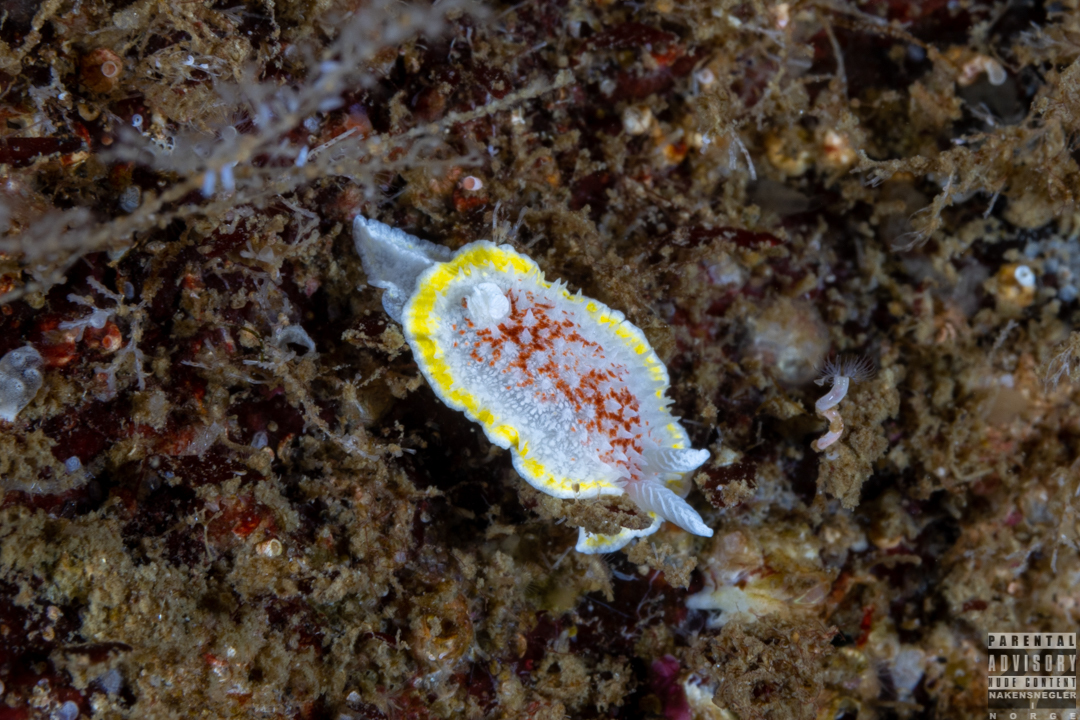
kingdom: Animalia
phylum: Mollusca
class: Gastropoda
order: Nudibranchia
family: Calycidorididae
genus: Diaphorodoris
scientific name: Diaphorodoris luteocincta
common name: Fried egg nudibranch
